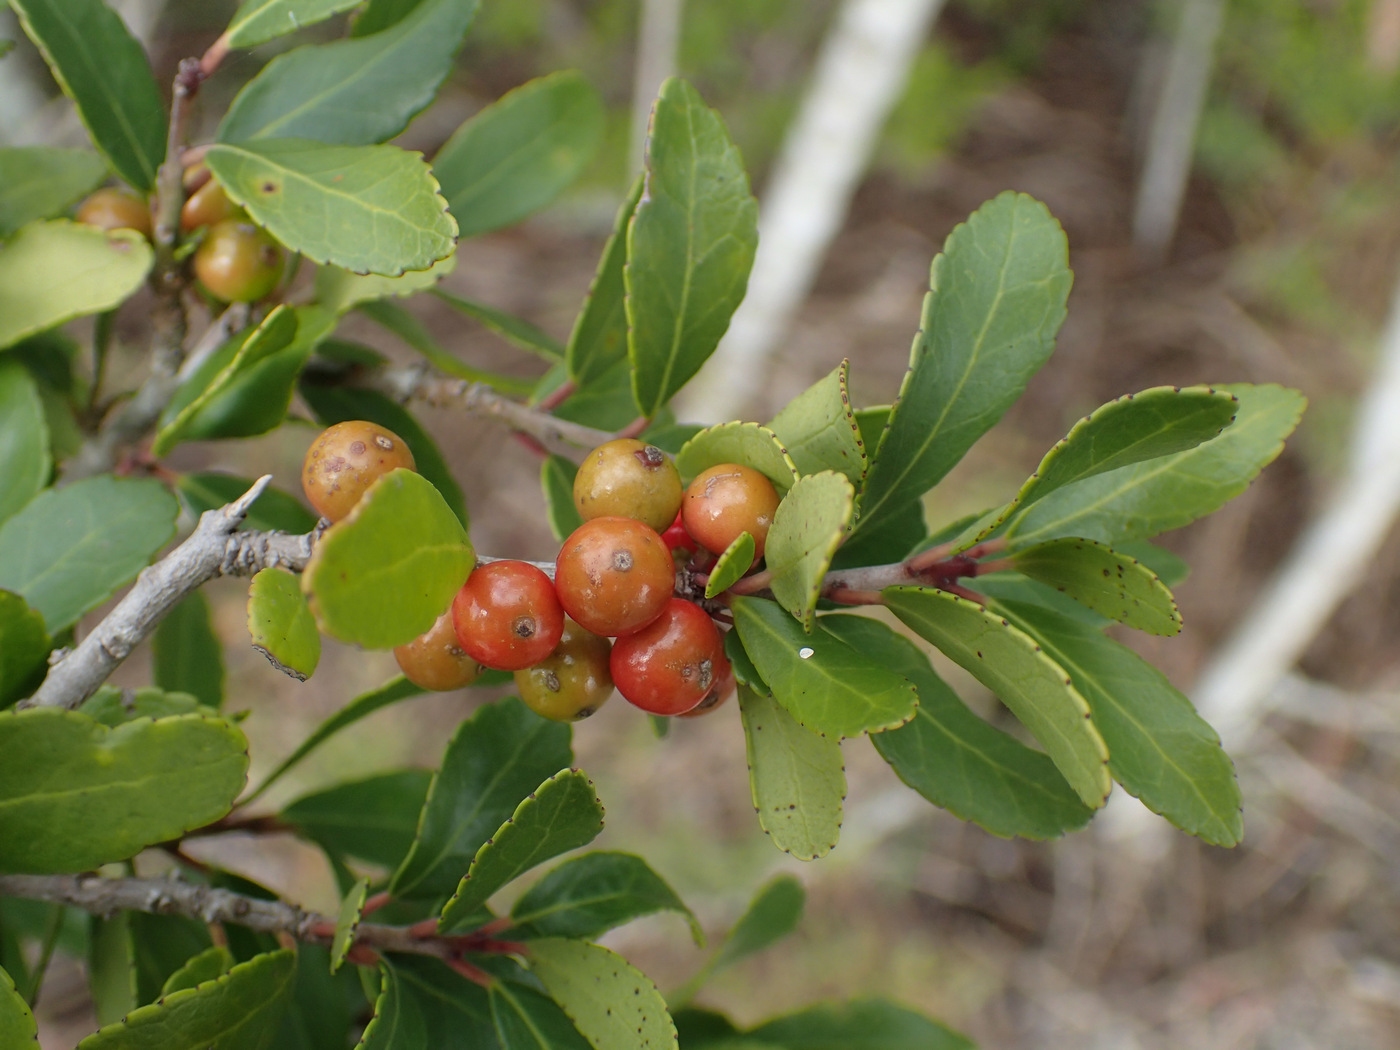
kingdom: Plantae
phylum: Tracheophyta
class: Magnoliopsida
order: Aquifoliales
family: Aquifoliaceae
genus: Ilex
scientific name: Ilex vomitoria
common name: Yaupon holly
